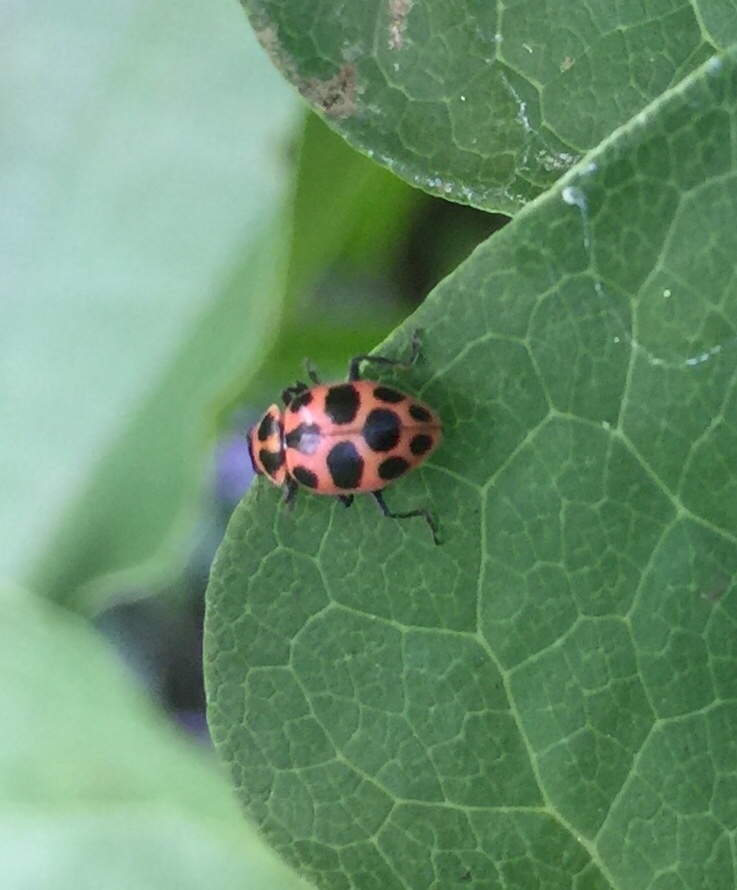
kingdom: Animalia
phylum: Arthropoda
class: Insecta
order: Coleoptera
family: Coccinellidae
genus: Coleomegilla
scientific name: Coleomegilla maculata
